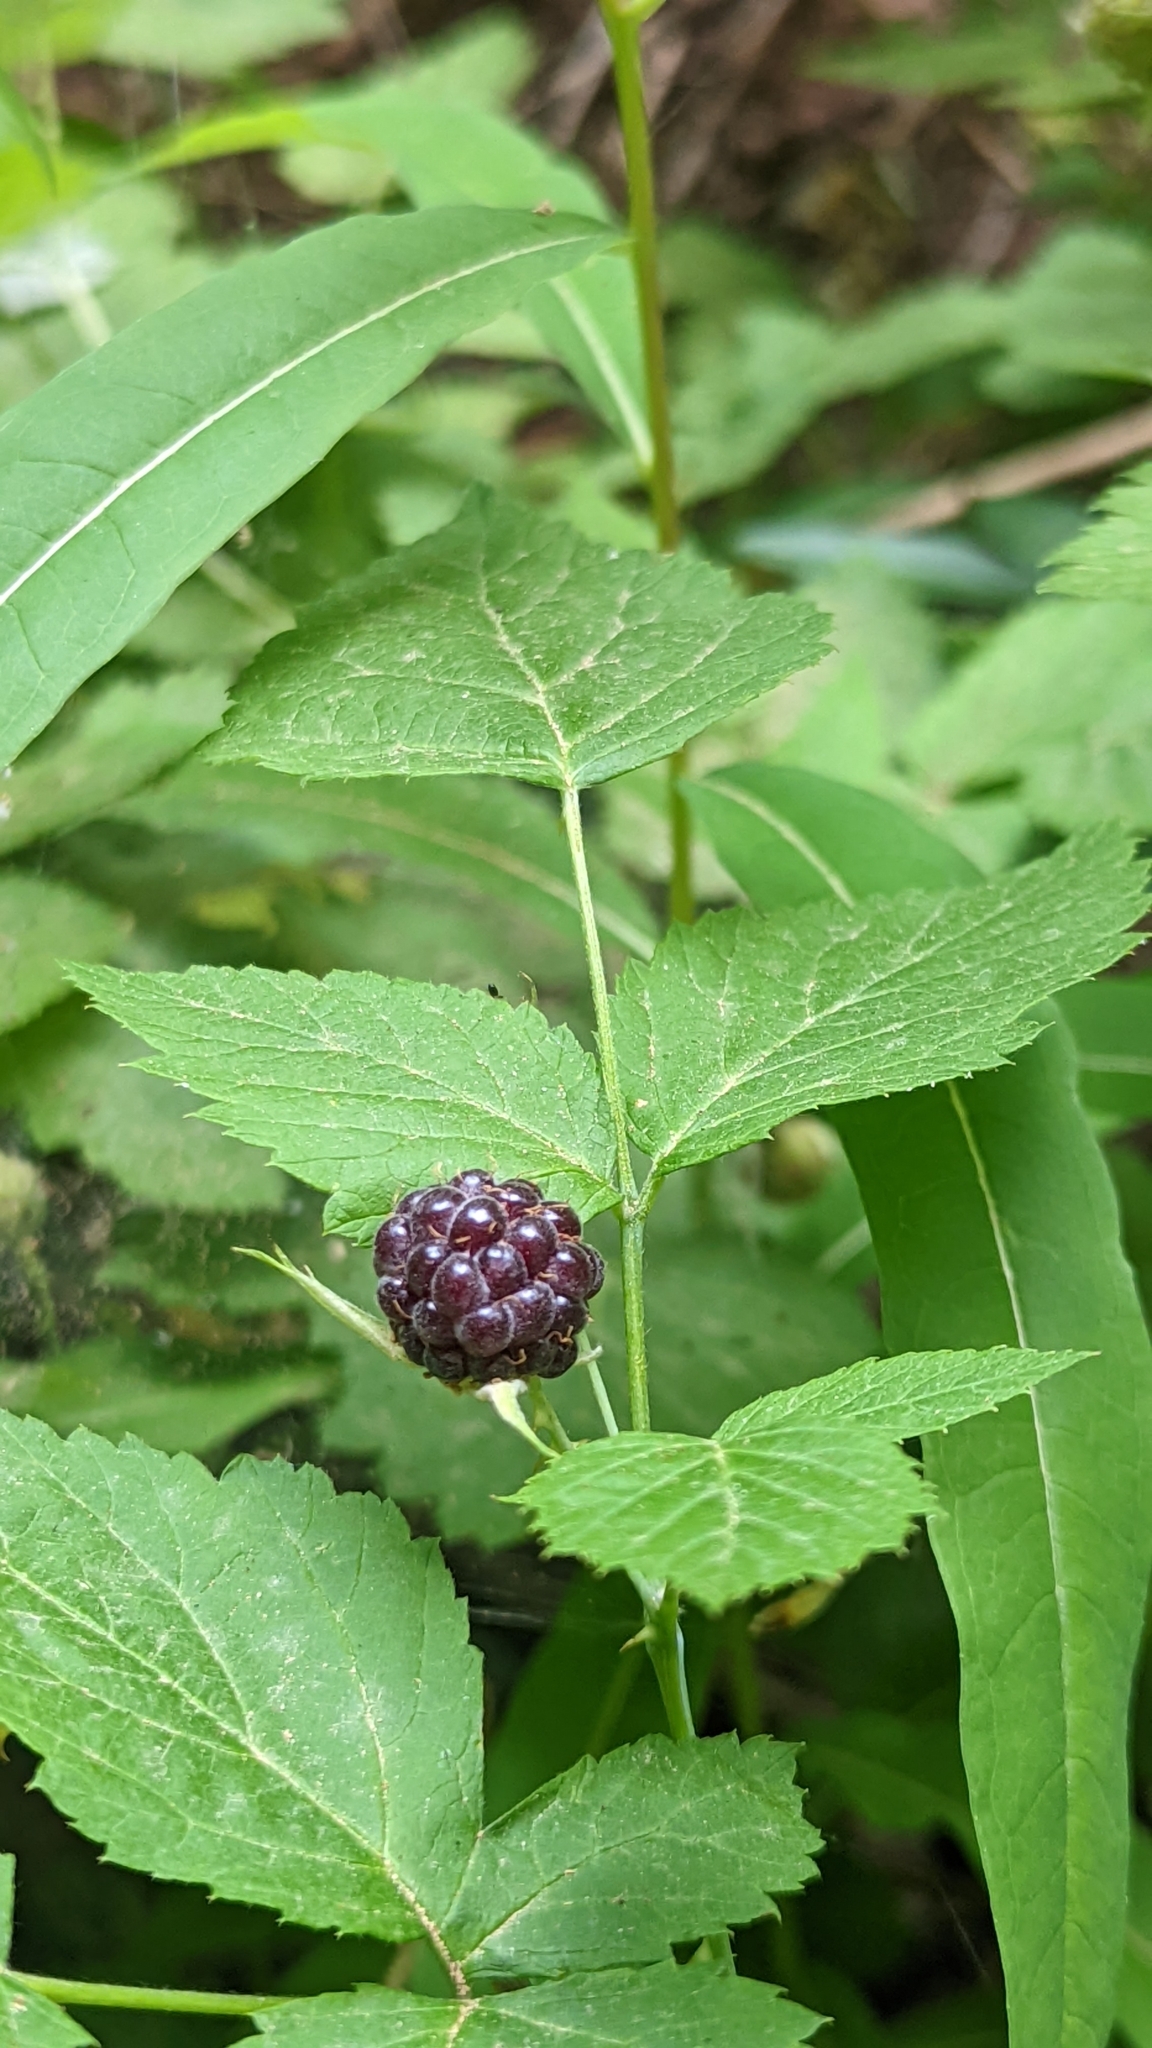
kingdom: Plantae
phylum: Tracheophyta
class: Magnoliopsida
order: Rosales
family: Rosaceae
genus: Rubus
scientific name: Rubus leucodermis
